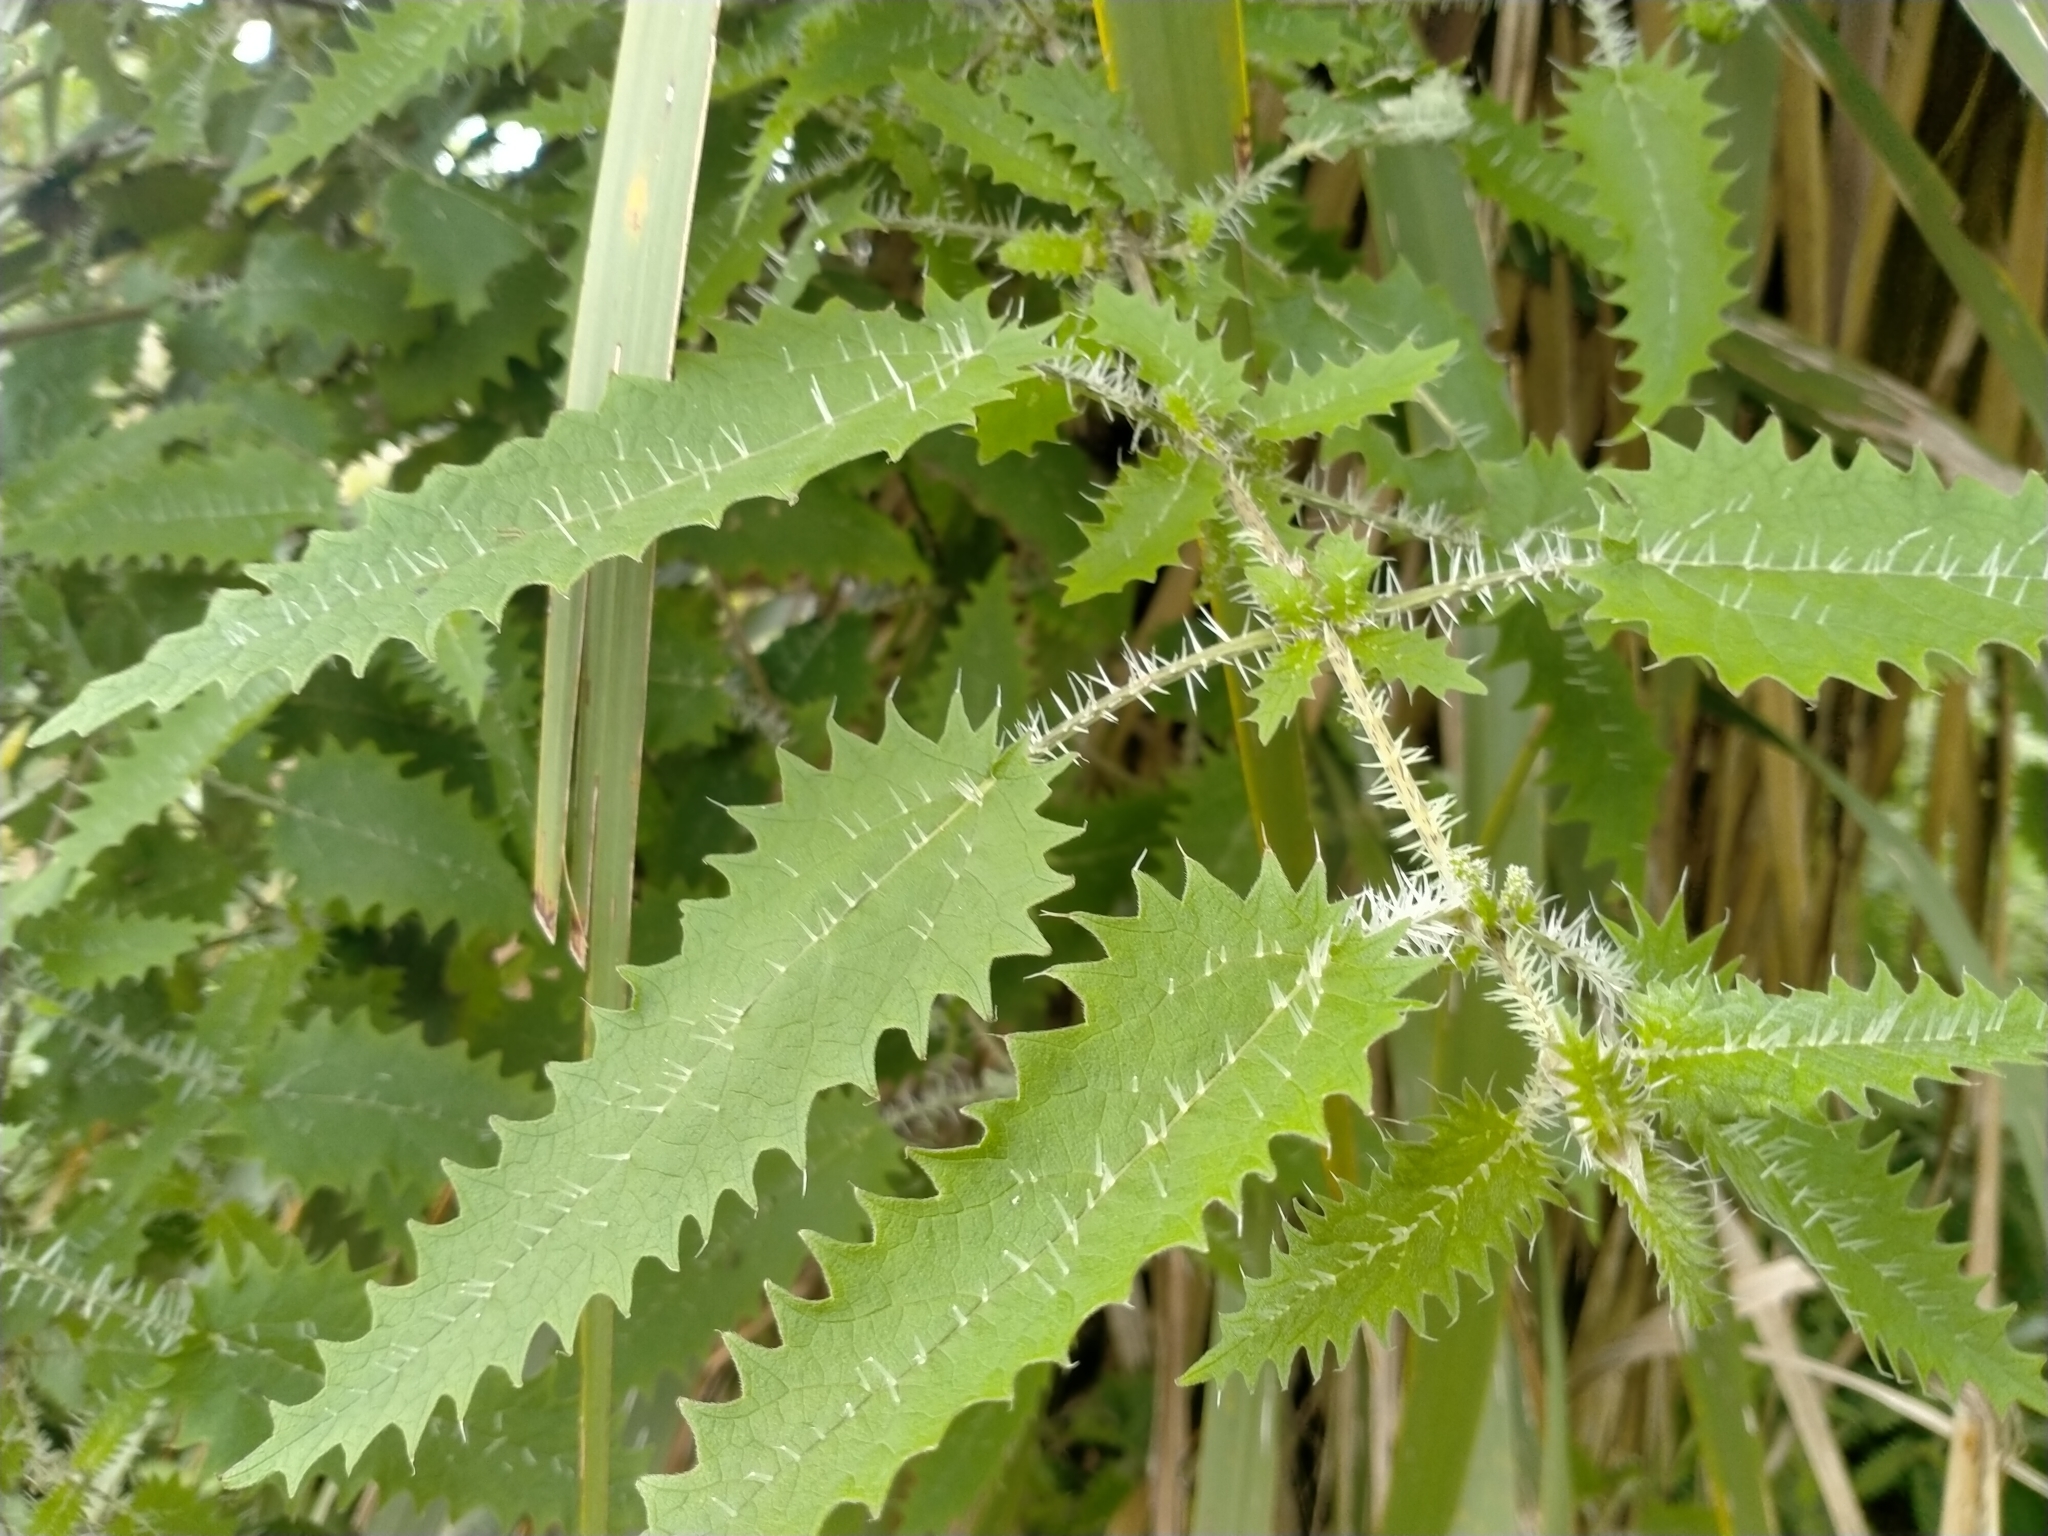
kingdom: Plantae
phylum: Tracheophyta
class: Magnoliopsida
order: Rosales
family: Urticaceae
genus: Urtica
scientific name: Urtica ferox
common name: Tree nettle
